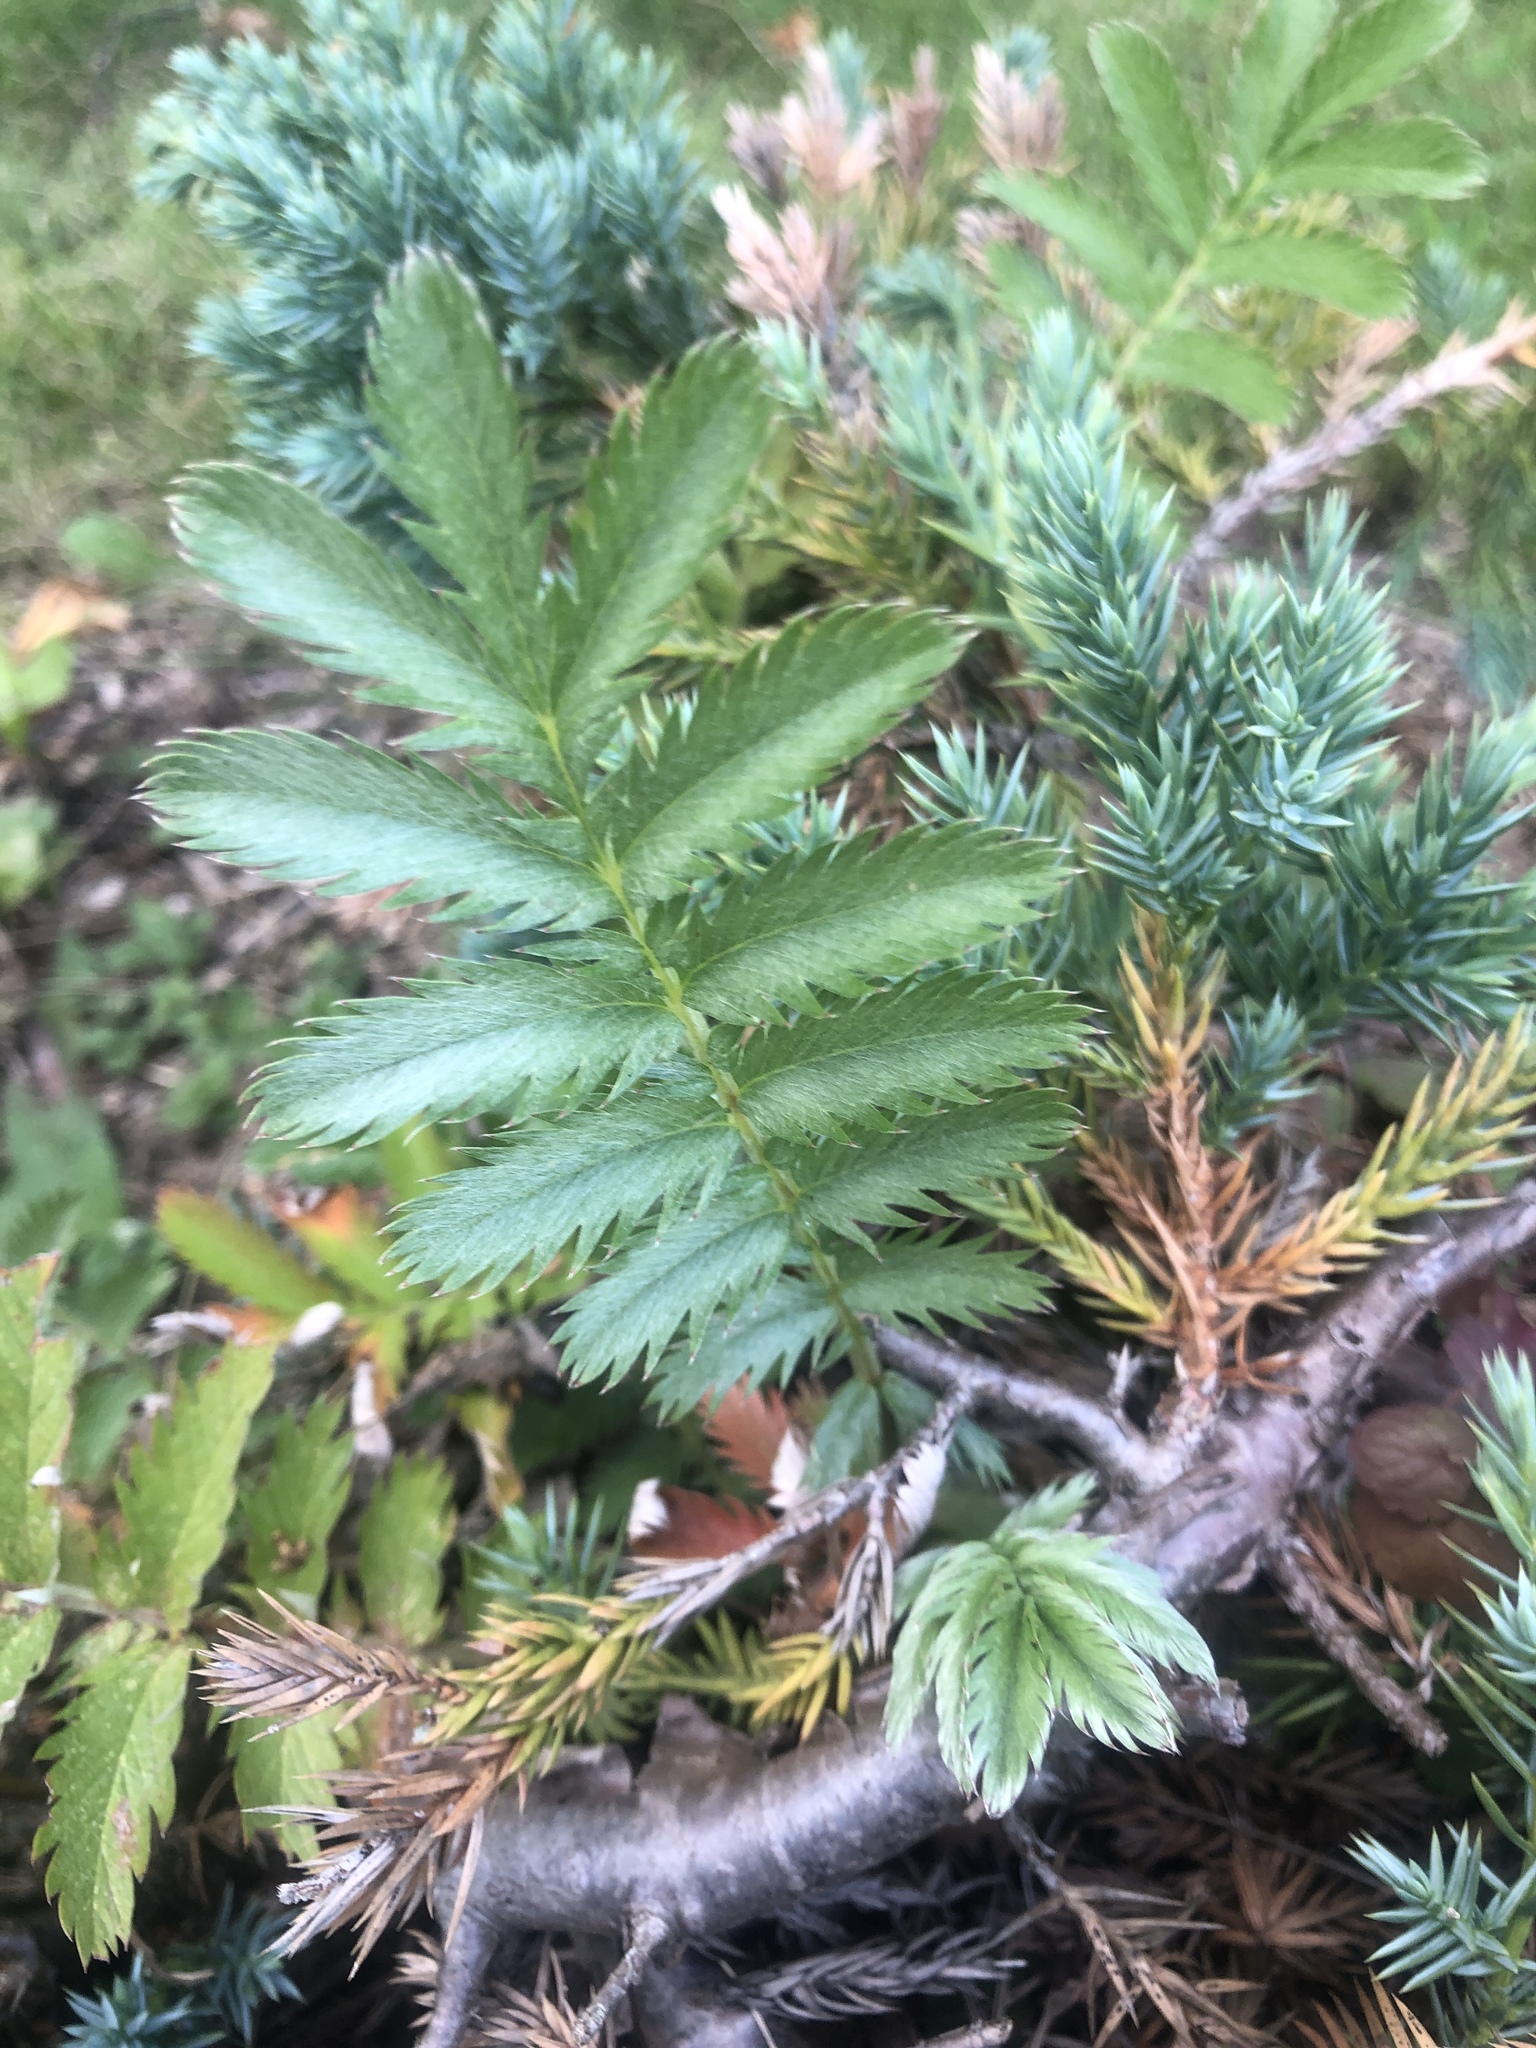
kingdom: Plantae
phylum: Tracheophyta
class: Magnoliopsida
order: Rosales
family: Rosaceae
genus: Argentina
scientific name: Argentina anserina
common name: Common silverweed
